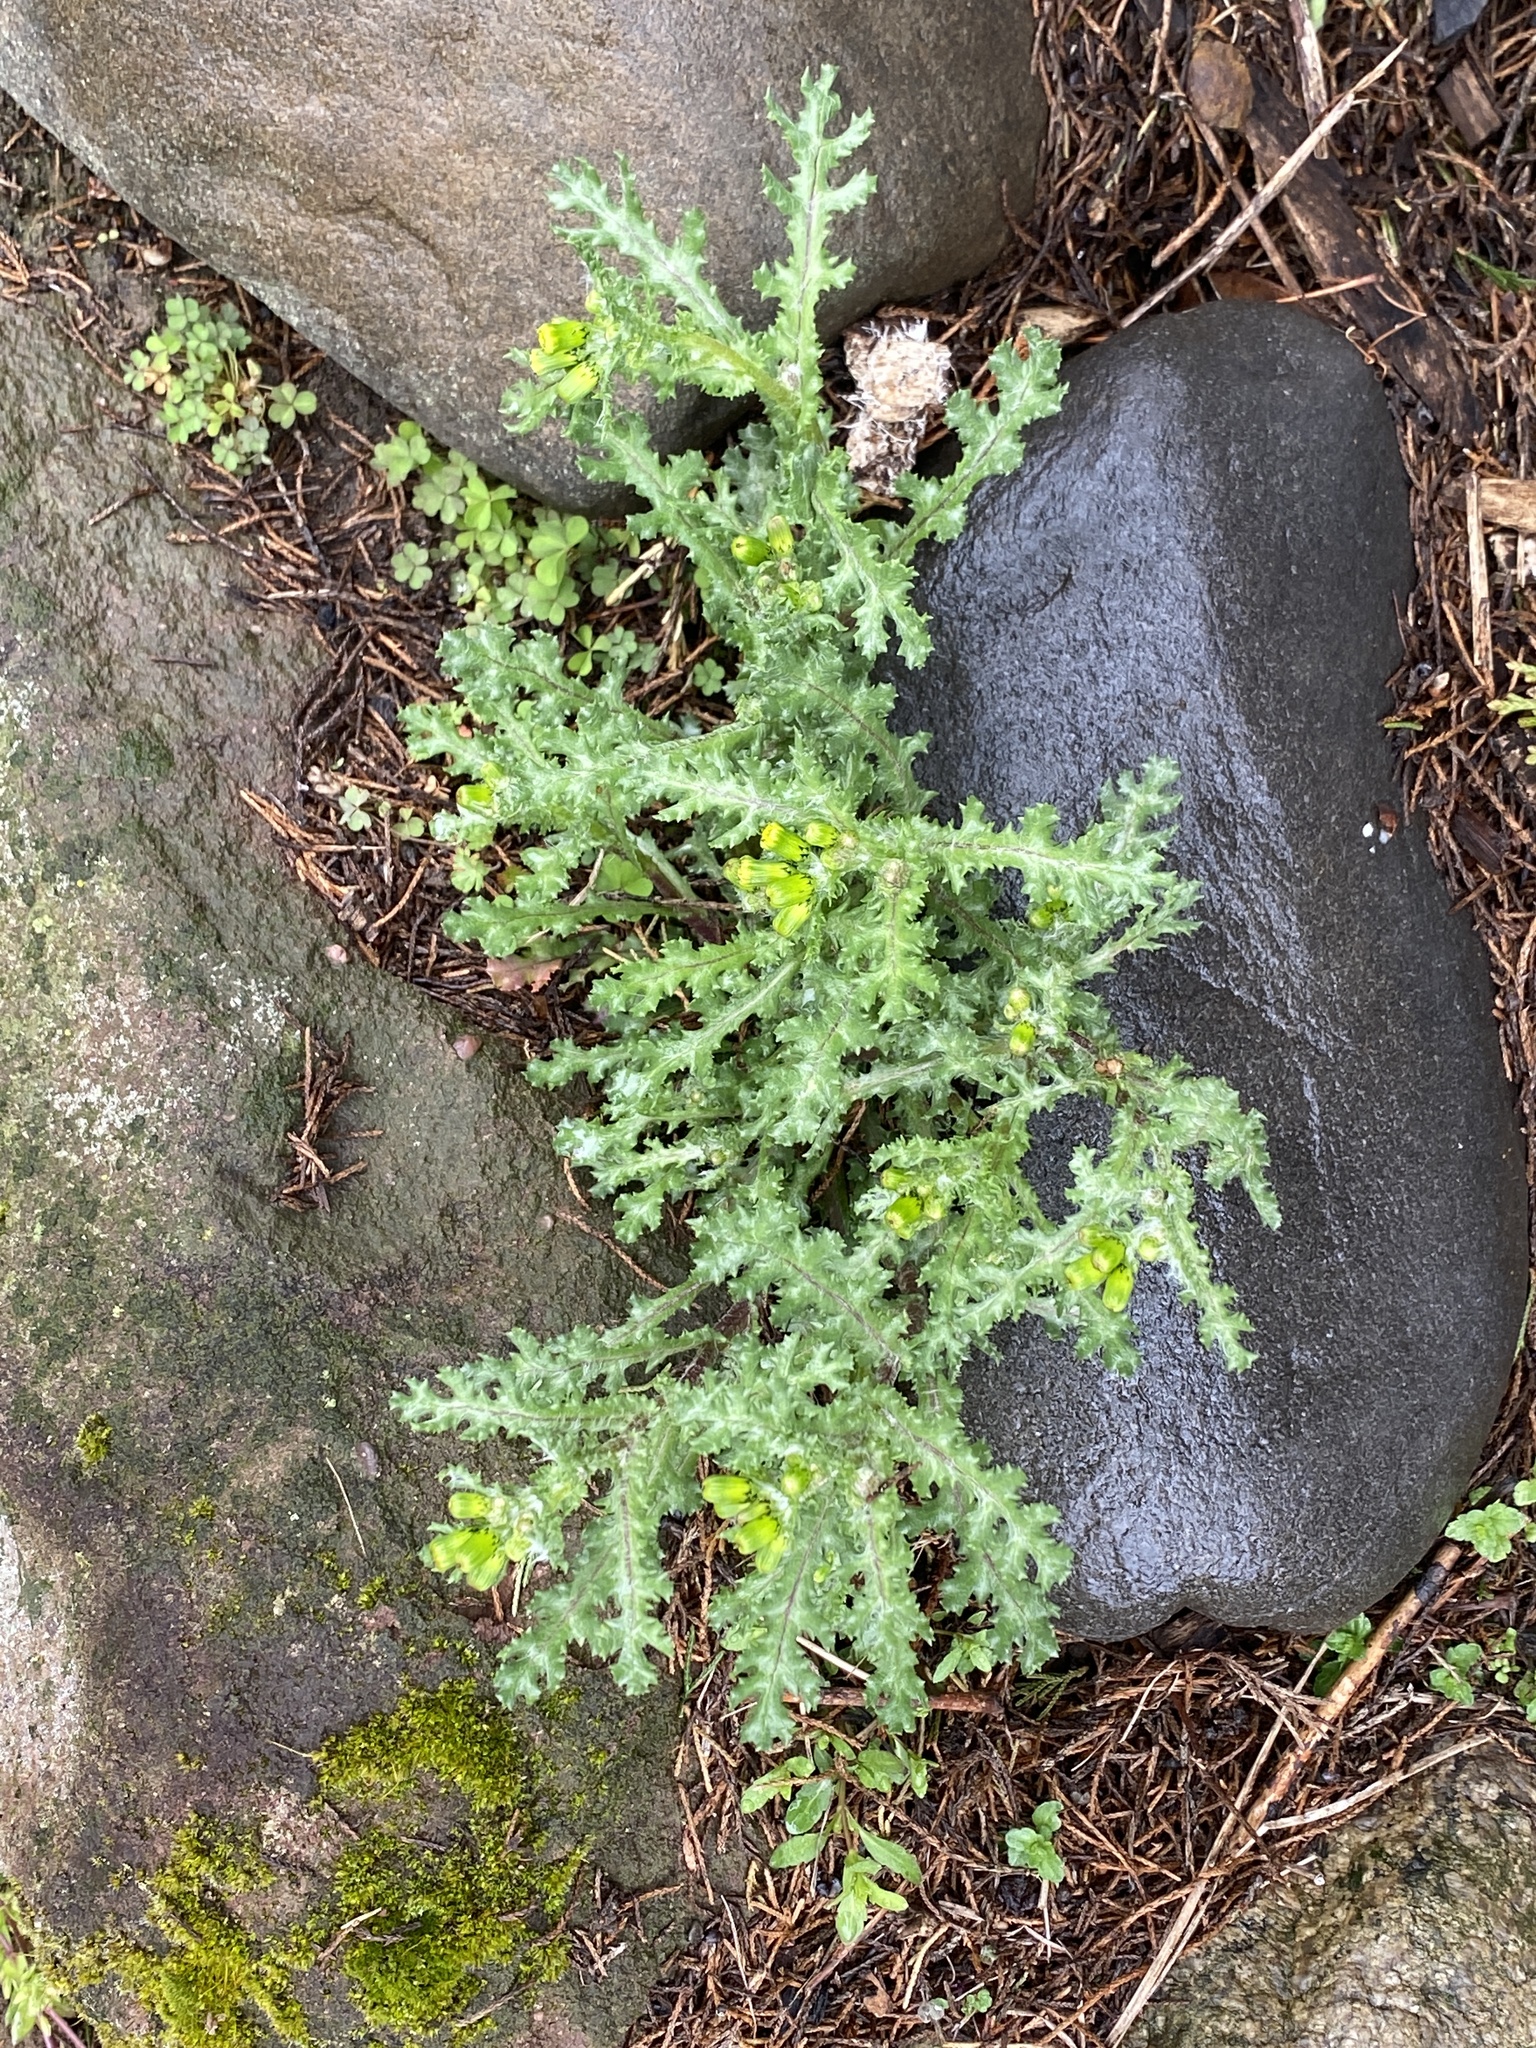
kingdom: Plantae
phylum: Tracheophyta
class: Magnoliopsida
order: Asterales
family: Asteraceae
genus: Senecio
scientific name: Senecio vulgaris
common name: Old-man-in-the-spring
